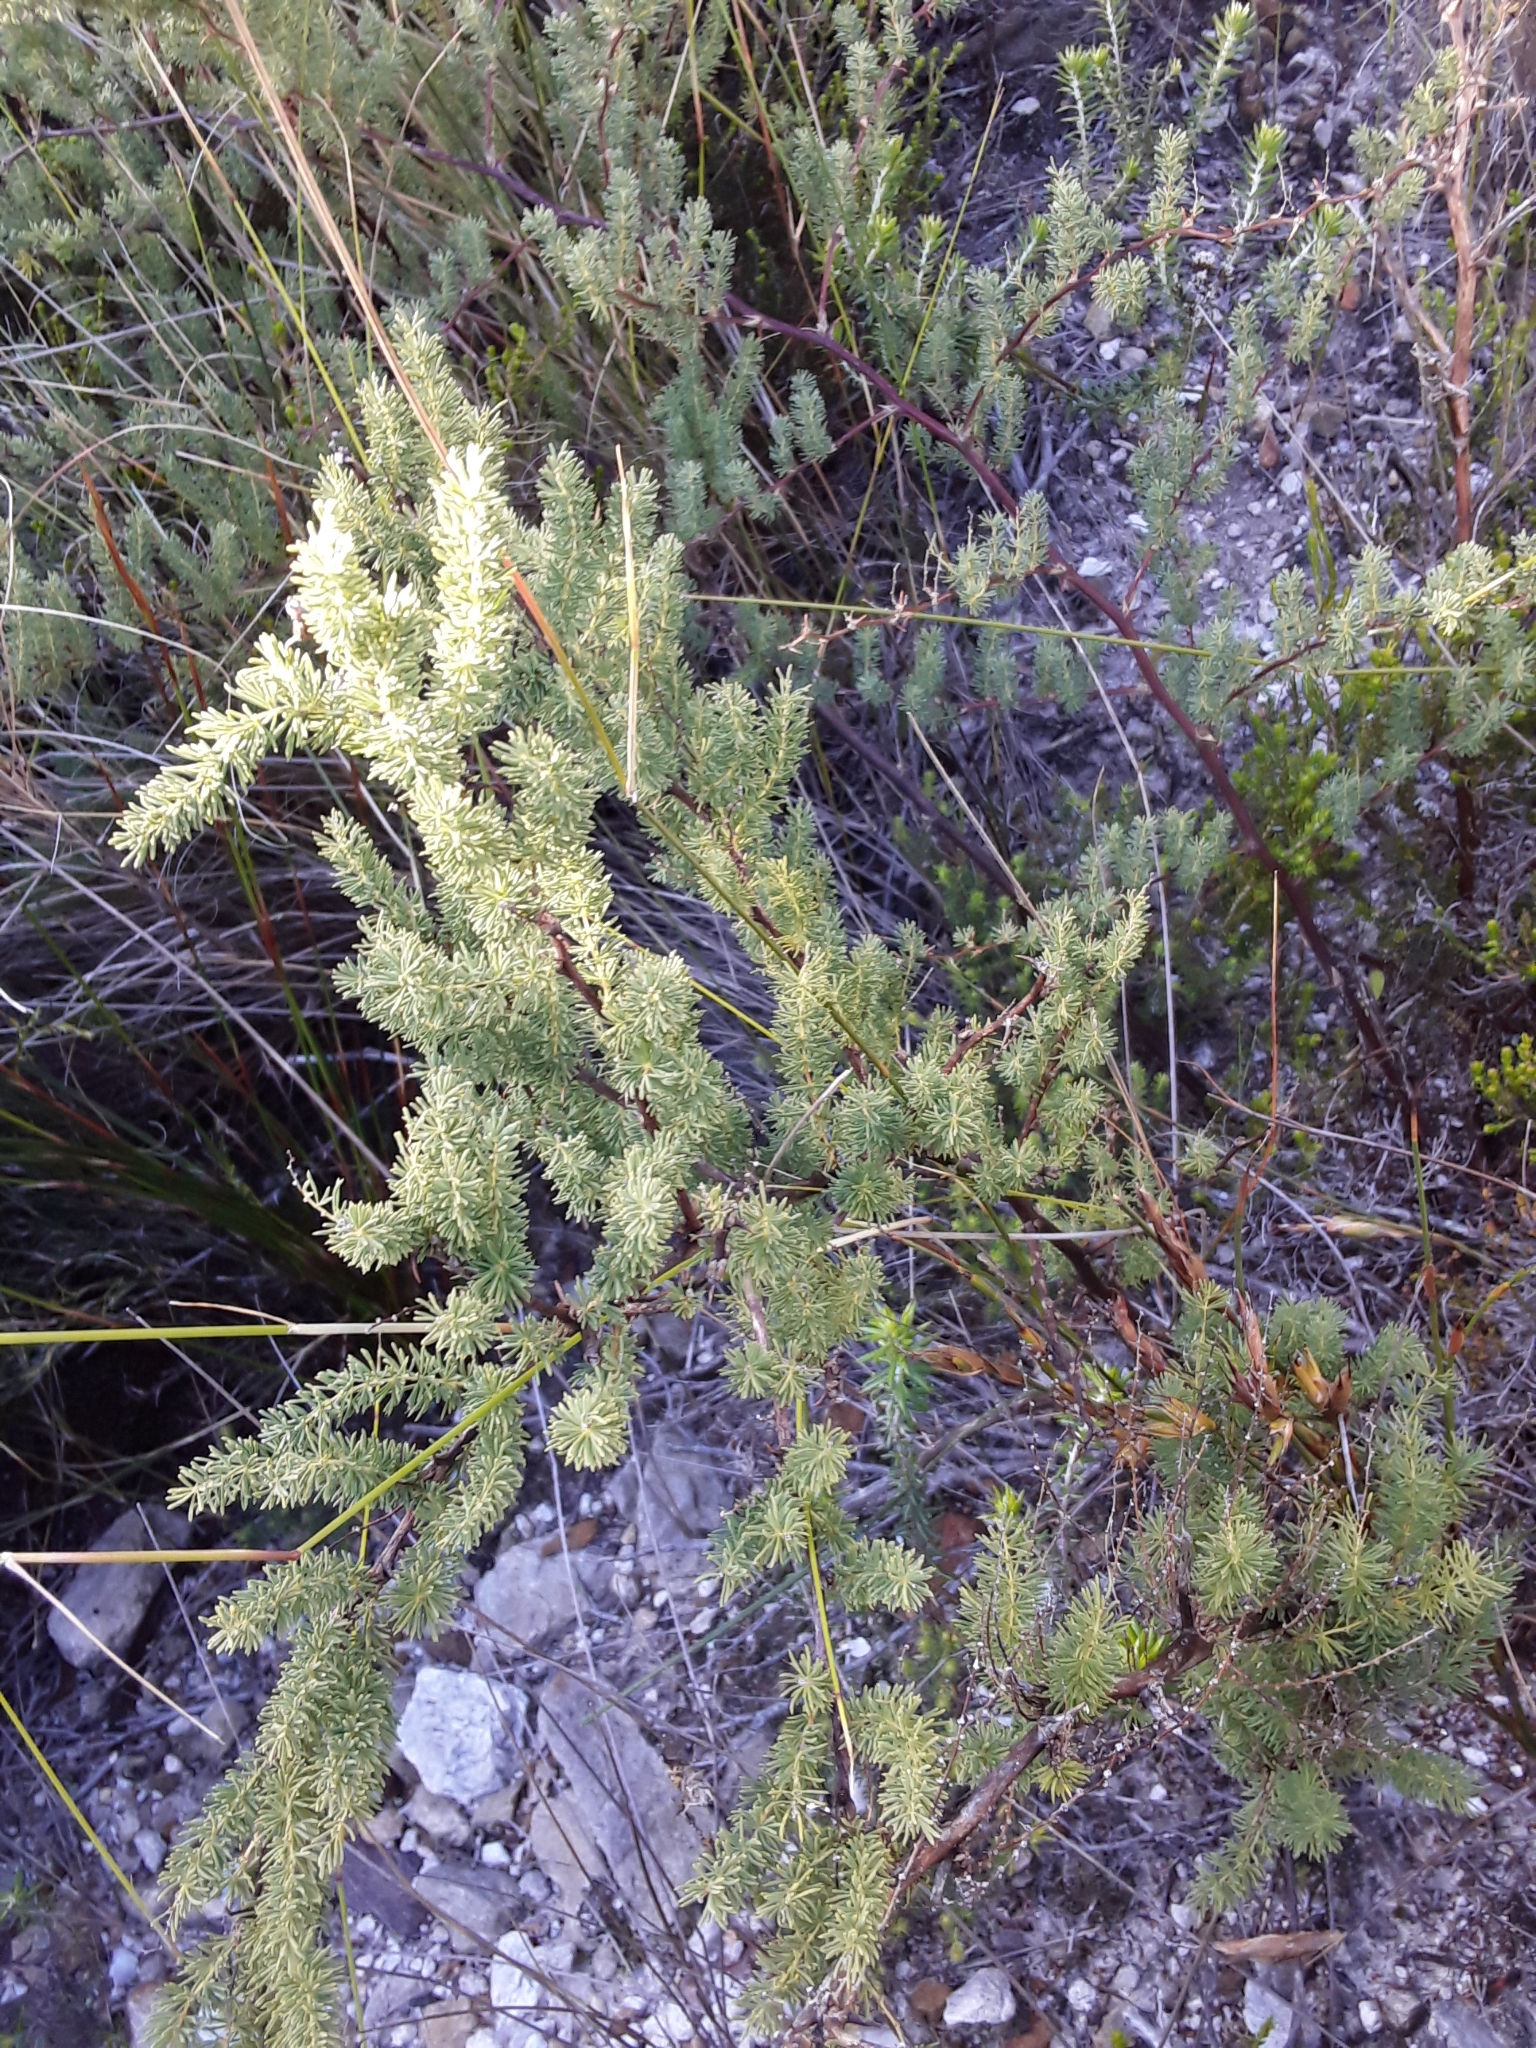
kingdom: Plantae
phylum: Tracheophyta
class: Liliopsida
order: Asparagales
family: Asparagaceae
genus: Asparagus
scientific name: Asparagus rubicundus
